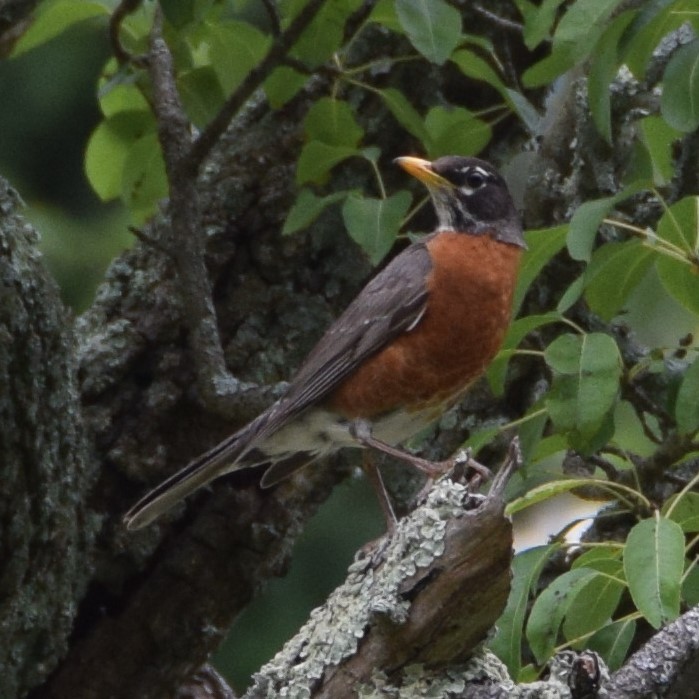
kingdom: Animalia
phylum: Chordata
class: Aves
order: Passeriformes
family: Turdidae
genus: Turdus
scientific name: Turdus migratorius
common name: American robin
